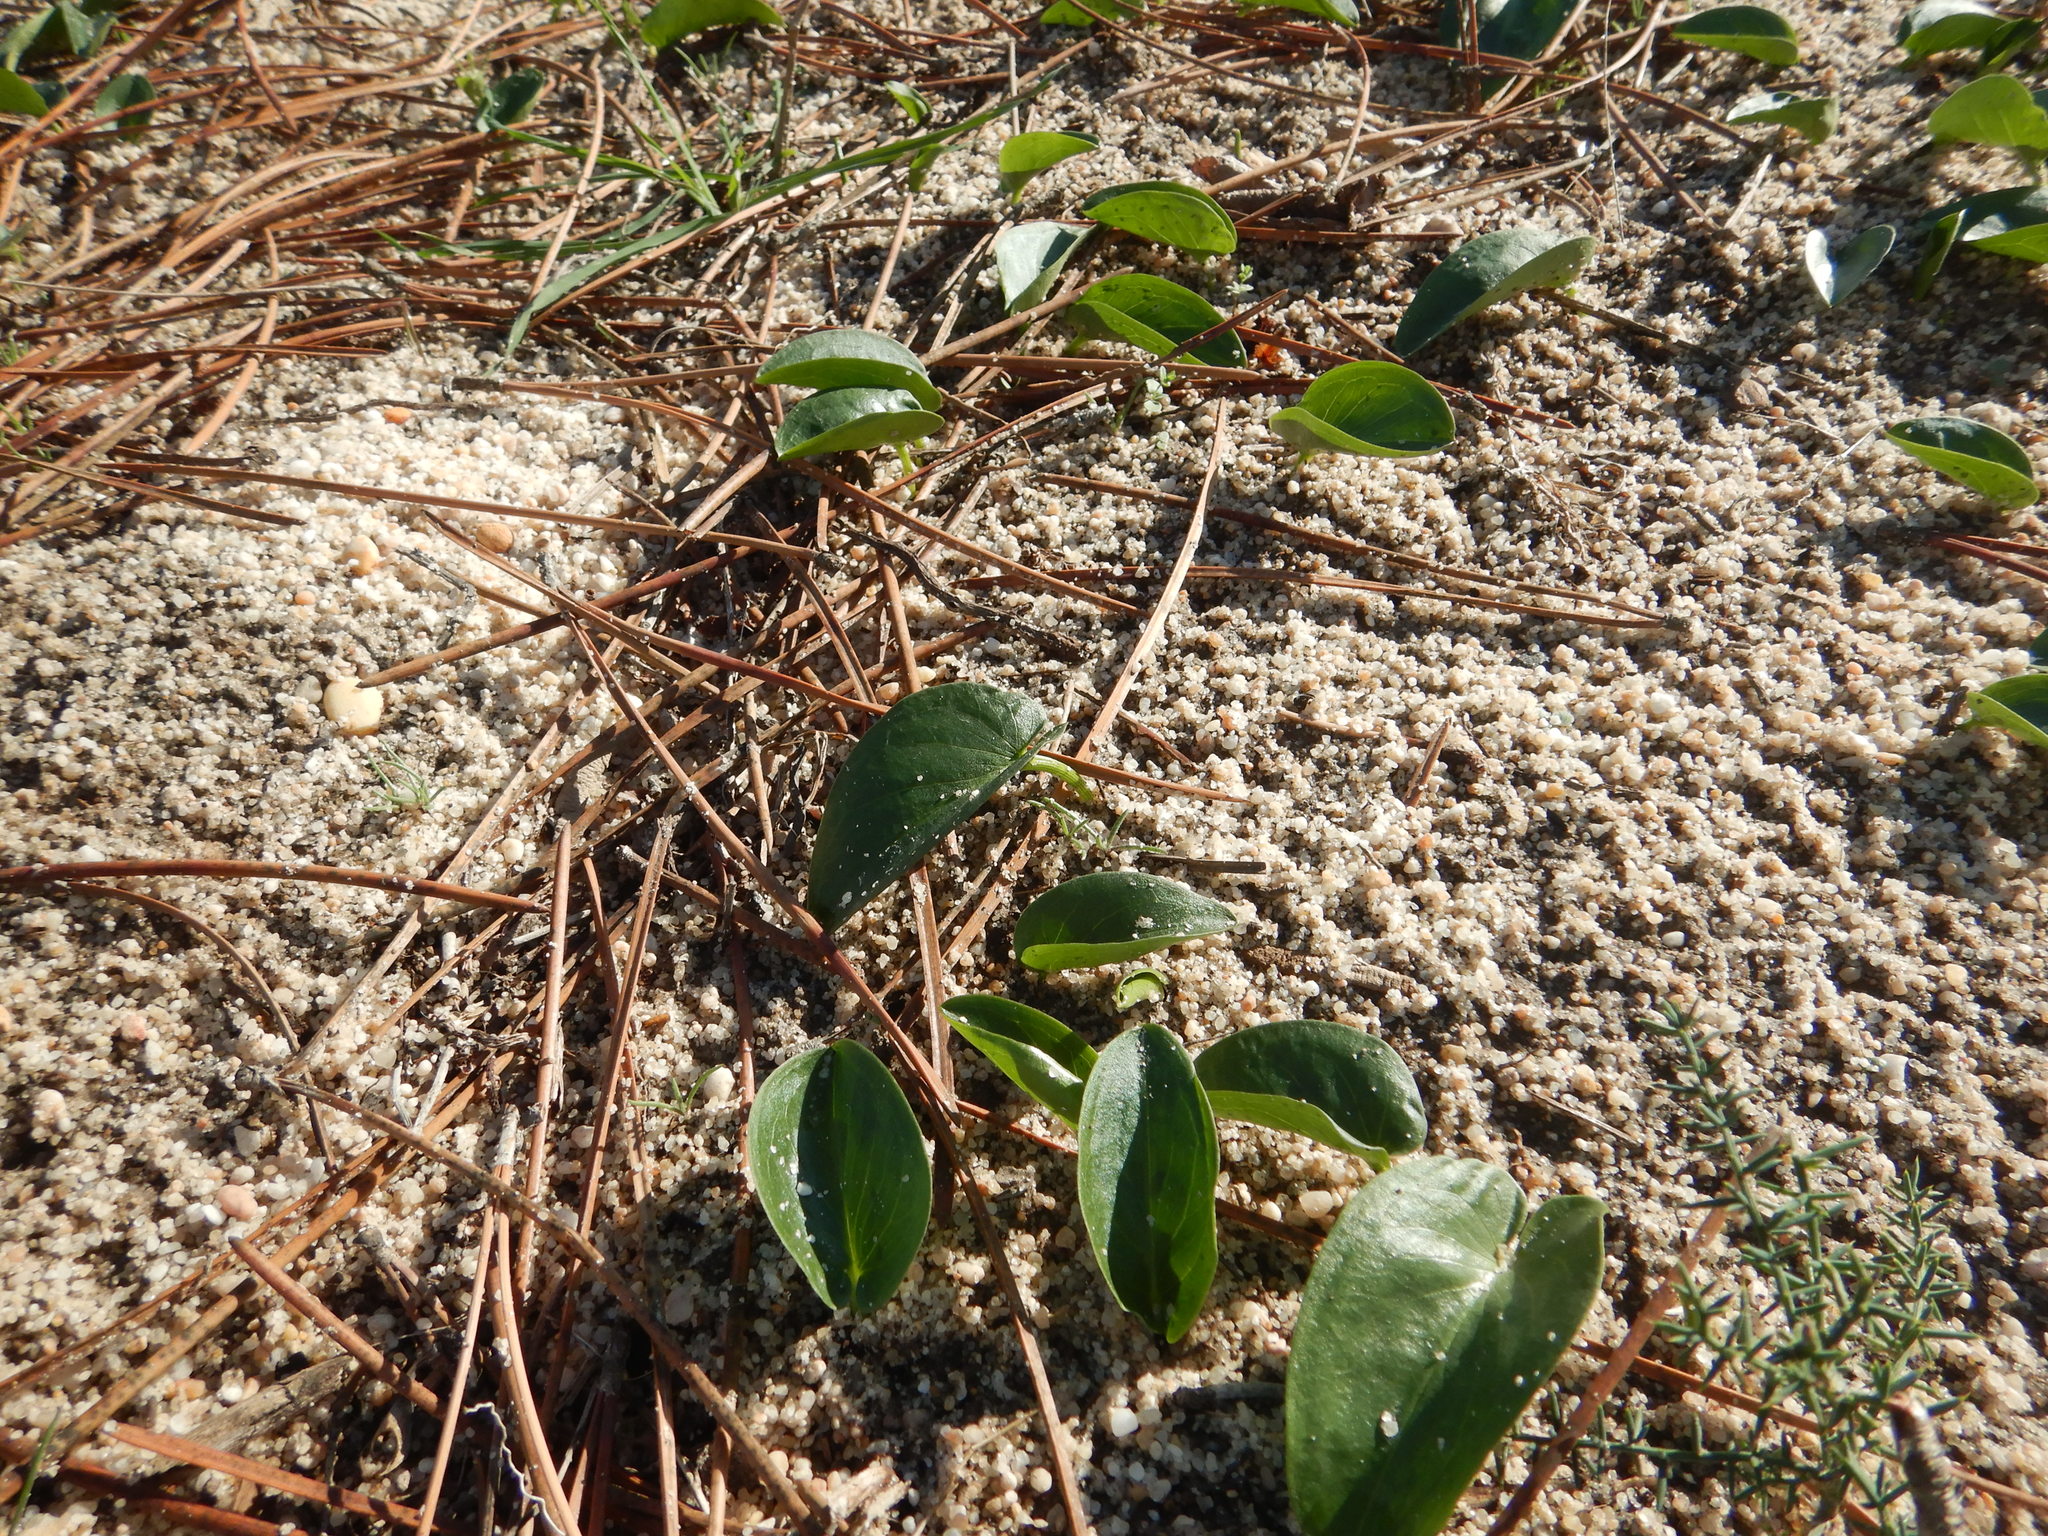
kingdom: Plantae
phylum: Tracheophyta
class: Liliopsida
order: Alismatales
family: Araceae
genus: Arisarum
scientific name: Arisarum simorrhinum
